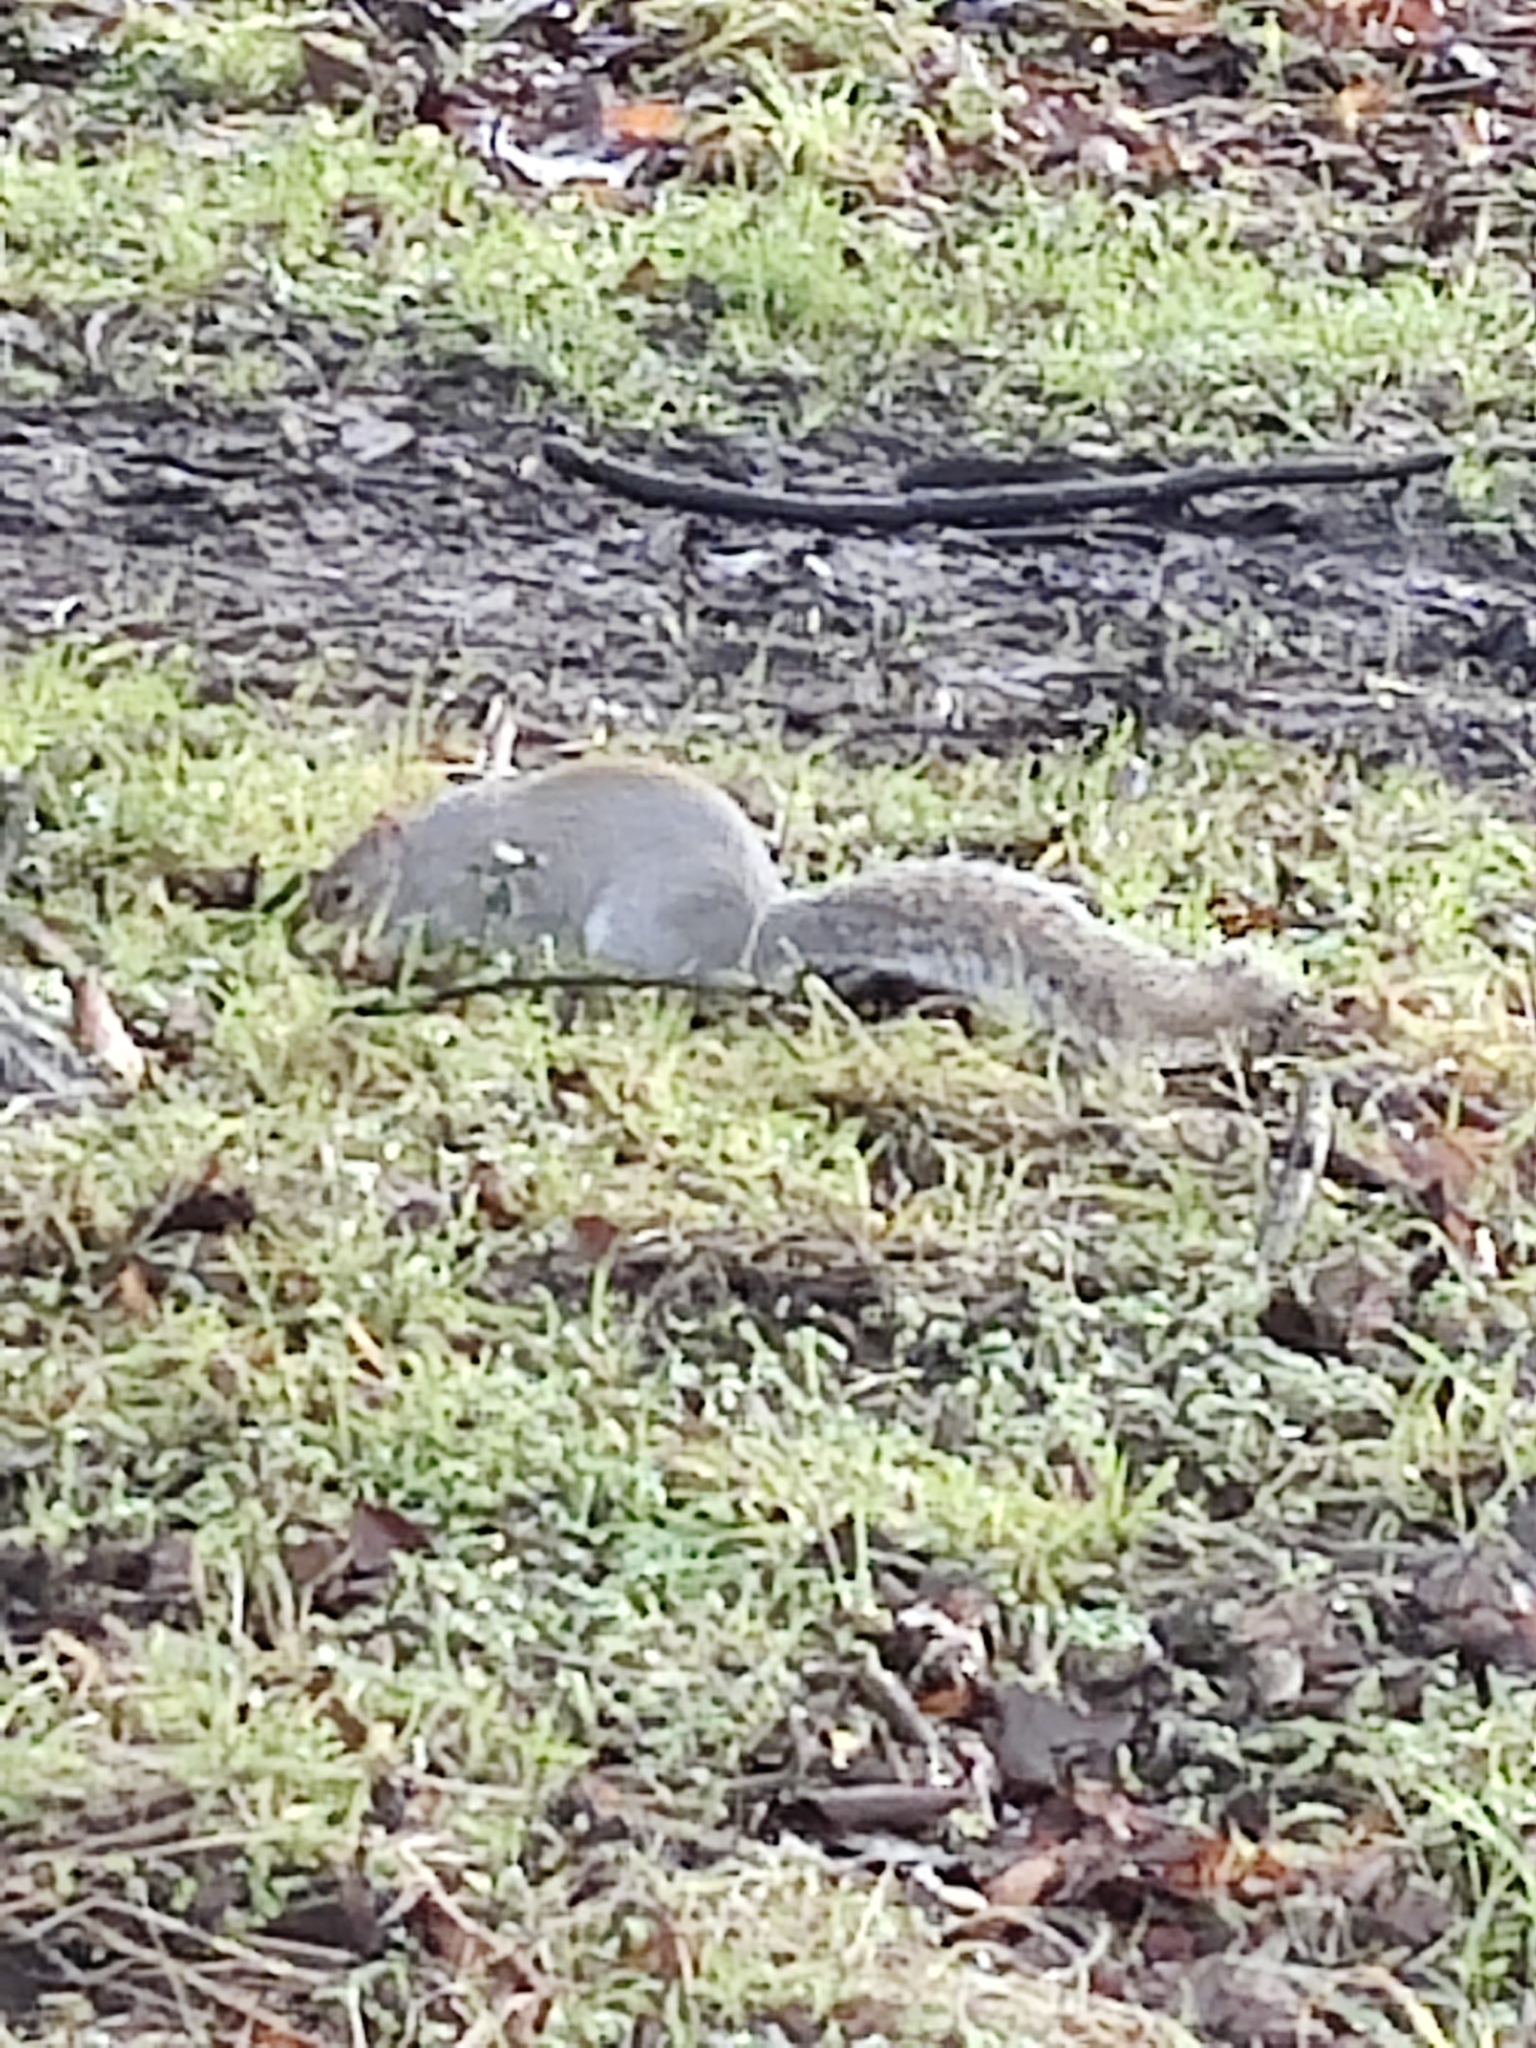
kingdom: Animalia
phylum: Chordata
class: Mammalia
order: Rodentia
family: Sciuridae
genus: Sciurus
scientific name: Sciurus carolinensis
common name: Eastern gray squirrel
